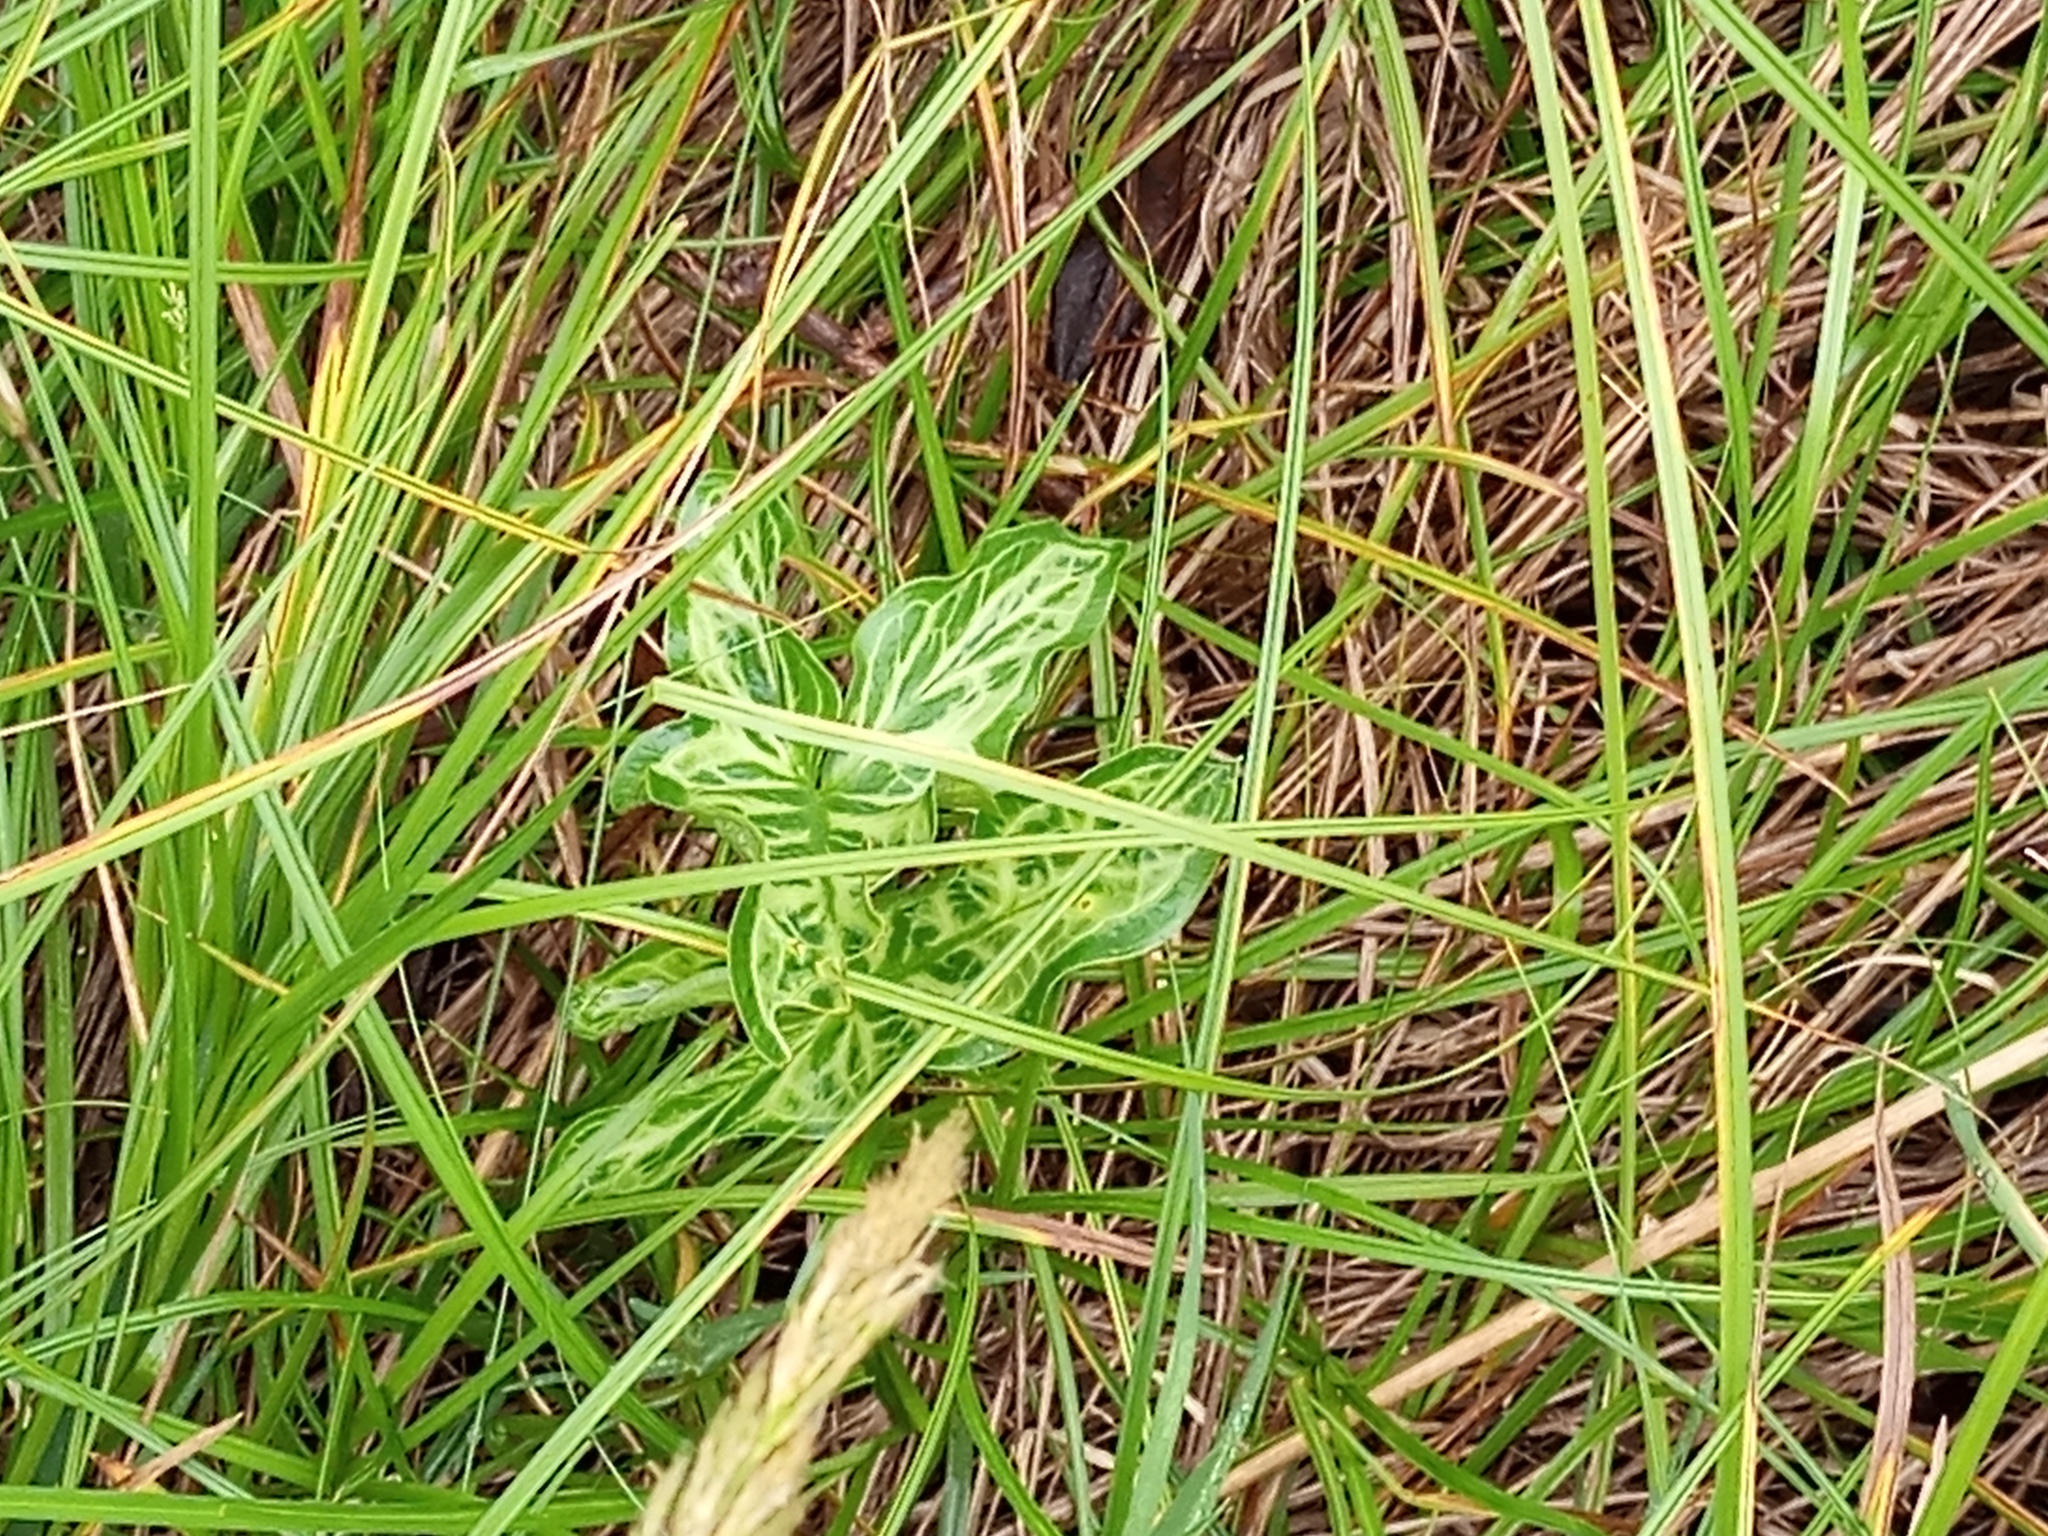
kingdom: Plantae
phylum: Tracheophyta
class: Liliopsida
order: Alismatales
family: Araceae
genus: Arum
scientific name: Arum italicum
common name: Italian lords-and-ladies
